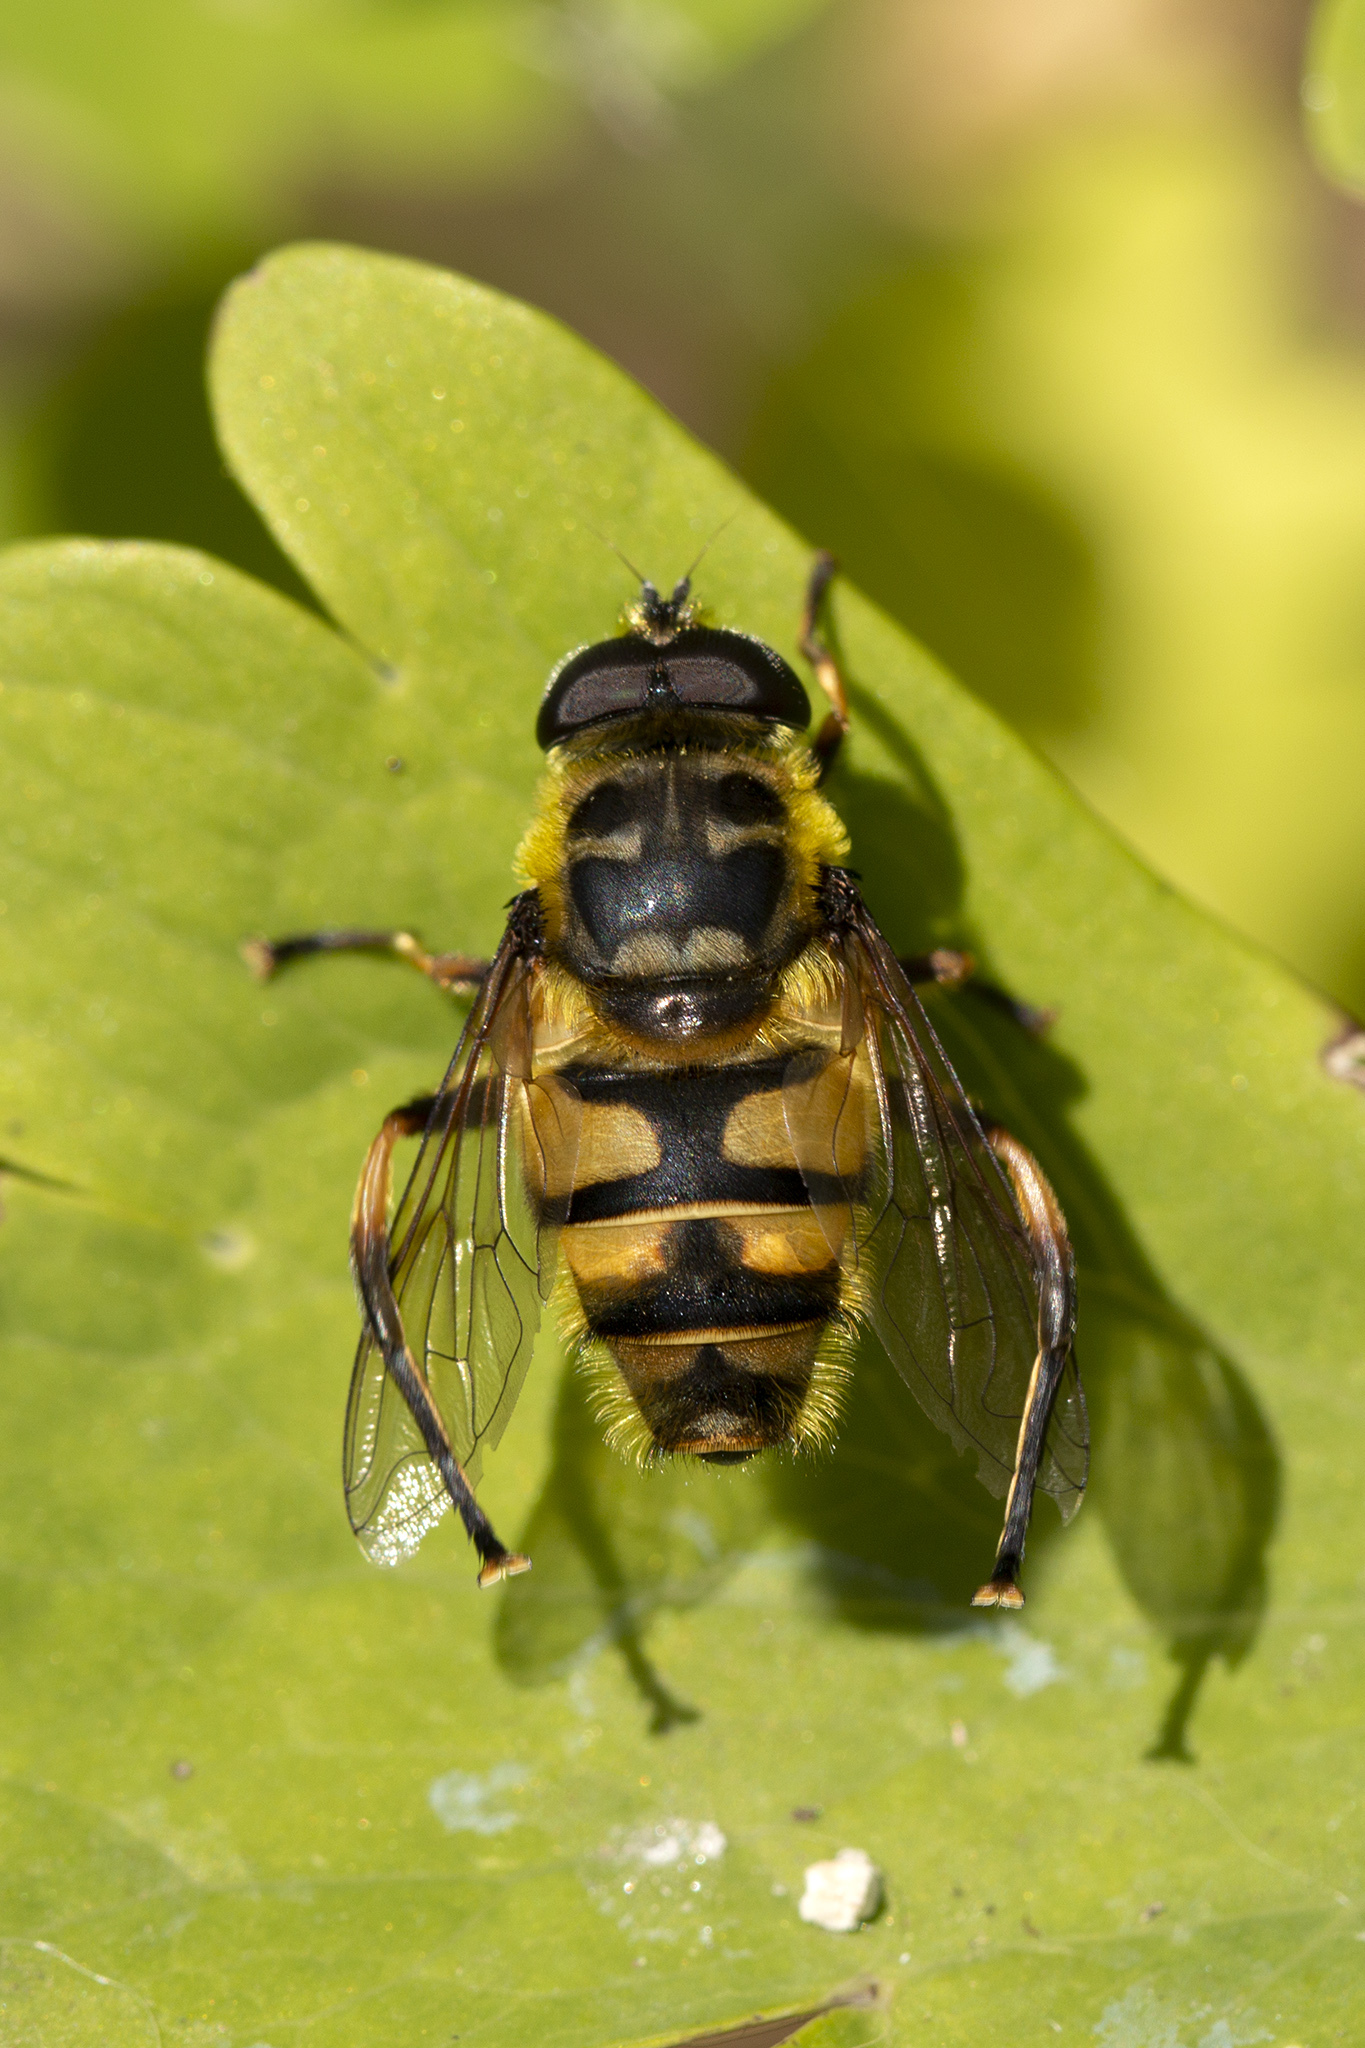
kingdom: Animalia
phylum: Arthropoda
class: Insecta
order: Diptera
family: Syrphidae
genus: Myathropa
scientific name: Myathropa florea
